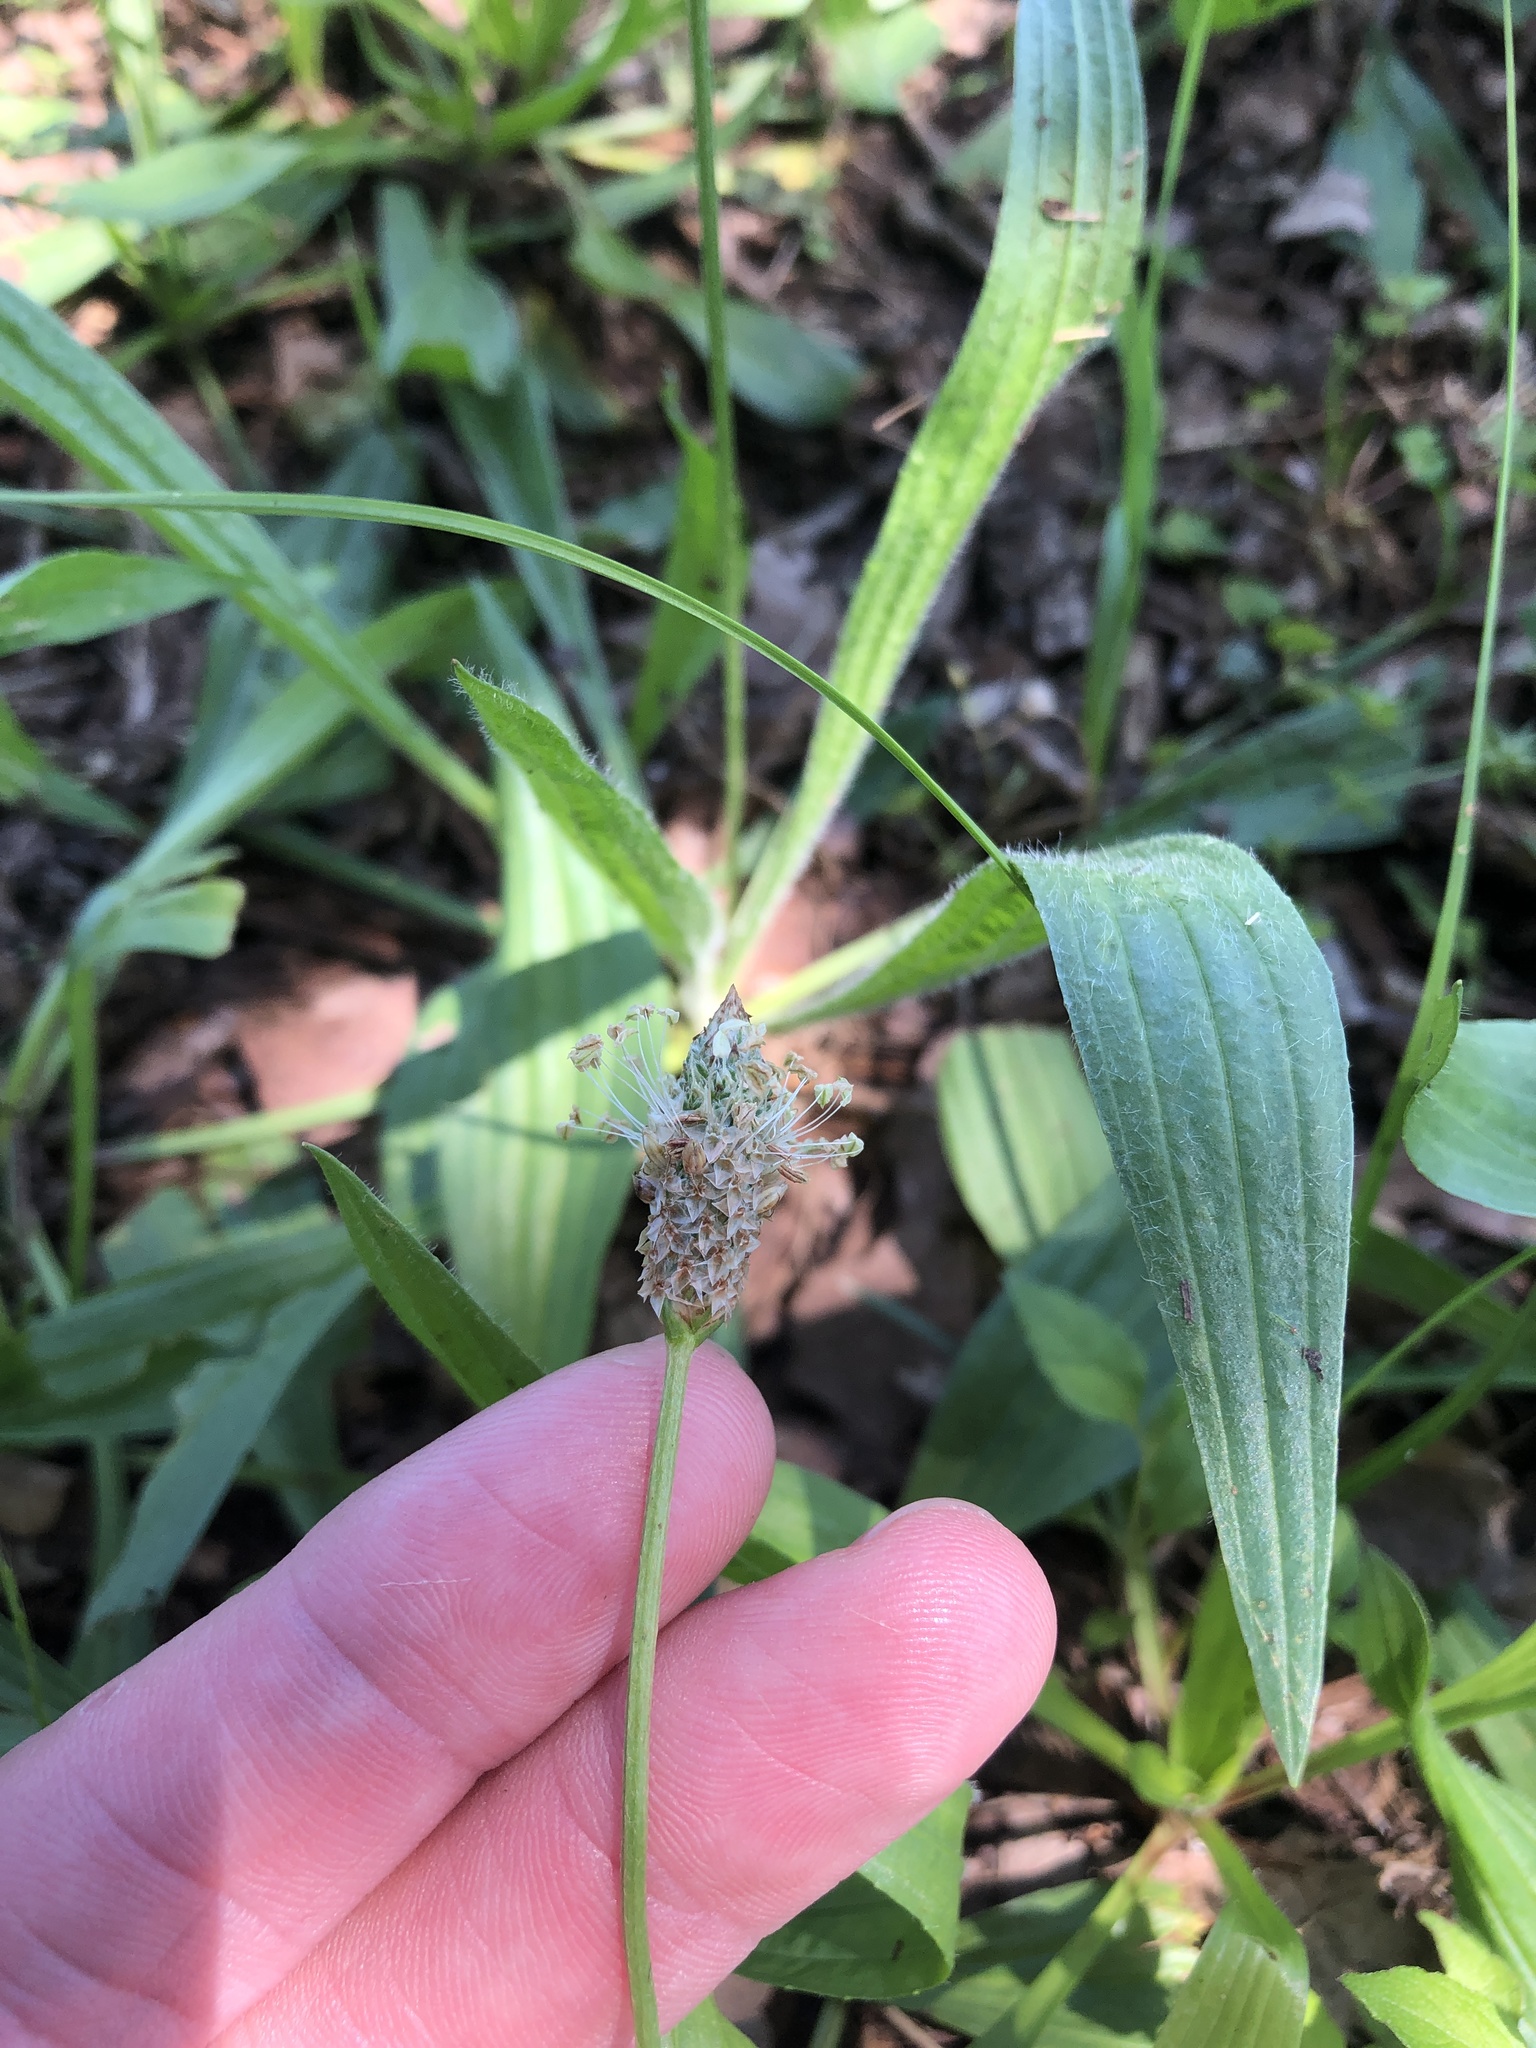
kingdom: Plantae
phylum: Tracheophyta
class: Magnoliopsida
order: Lamiales
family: Plantaginaceae
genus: Plantago
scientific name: Plantago lanceolata
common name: Ribwort plantain
